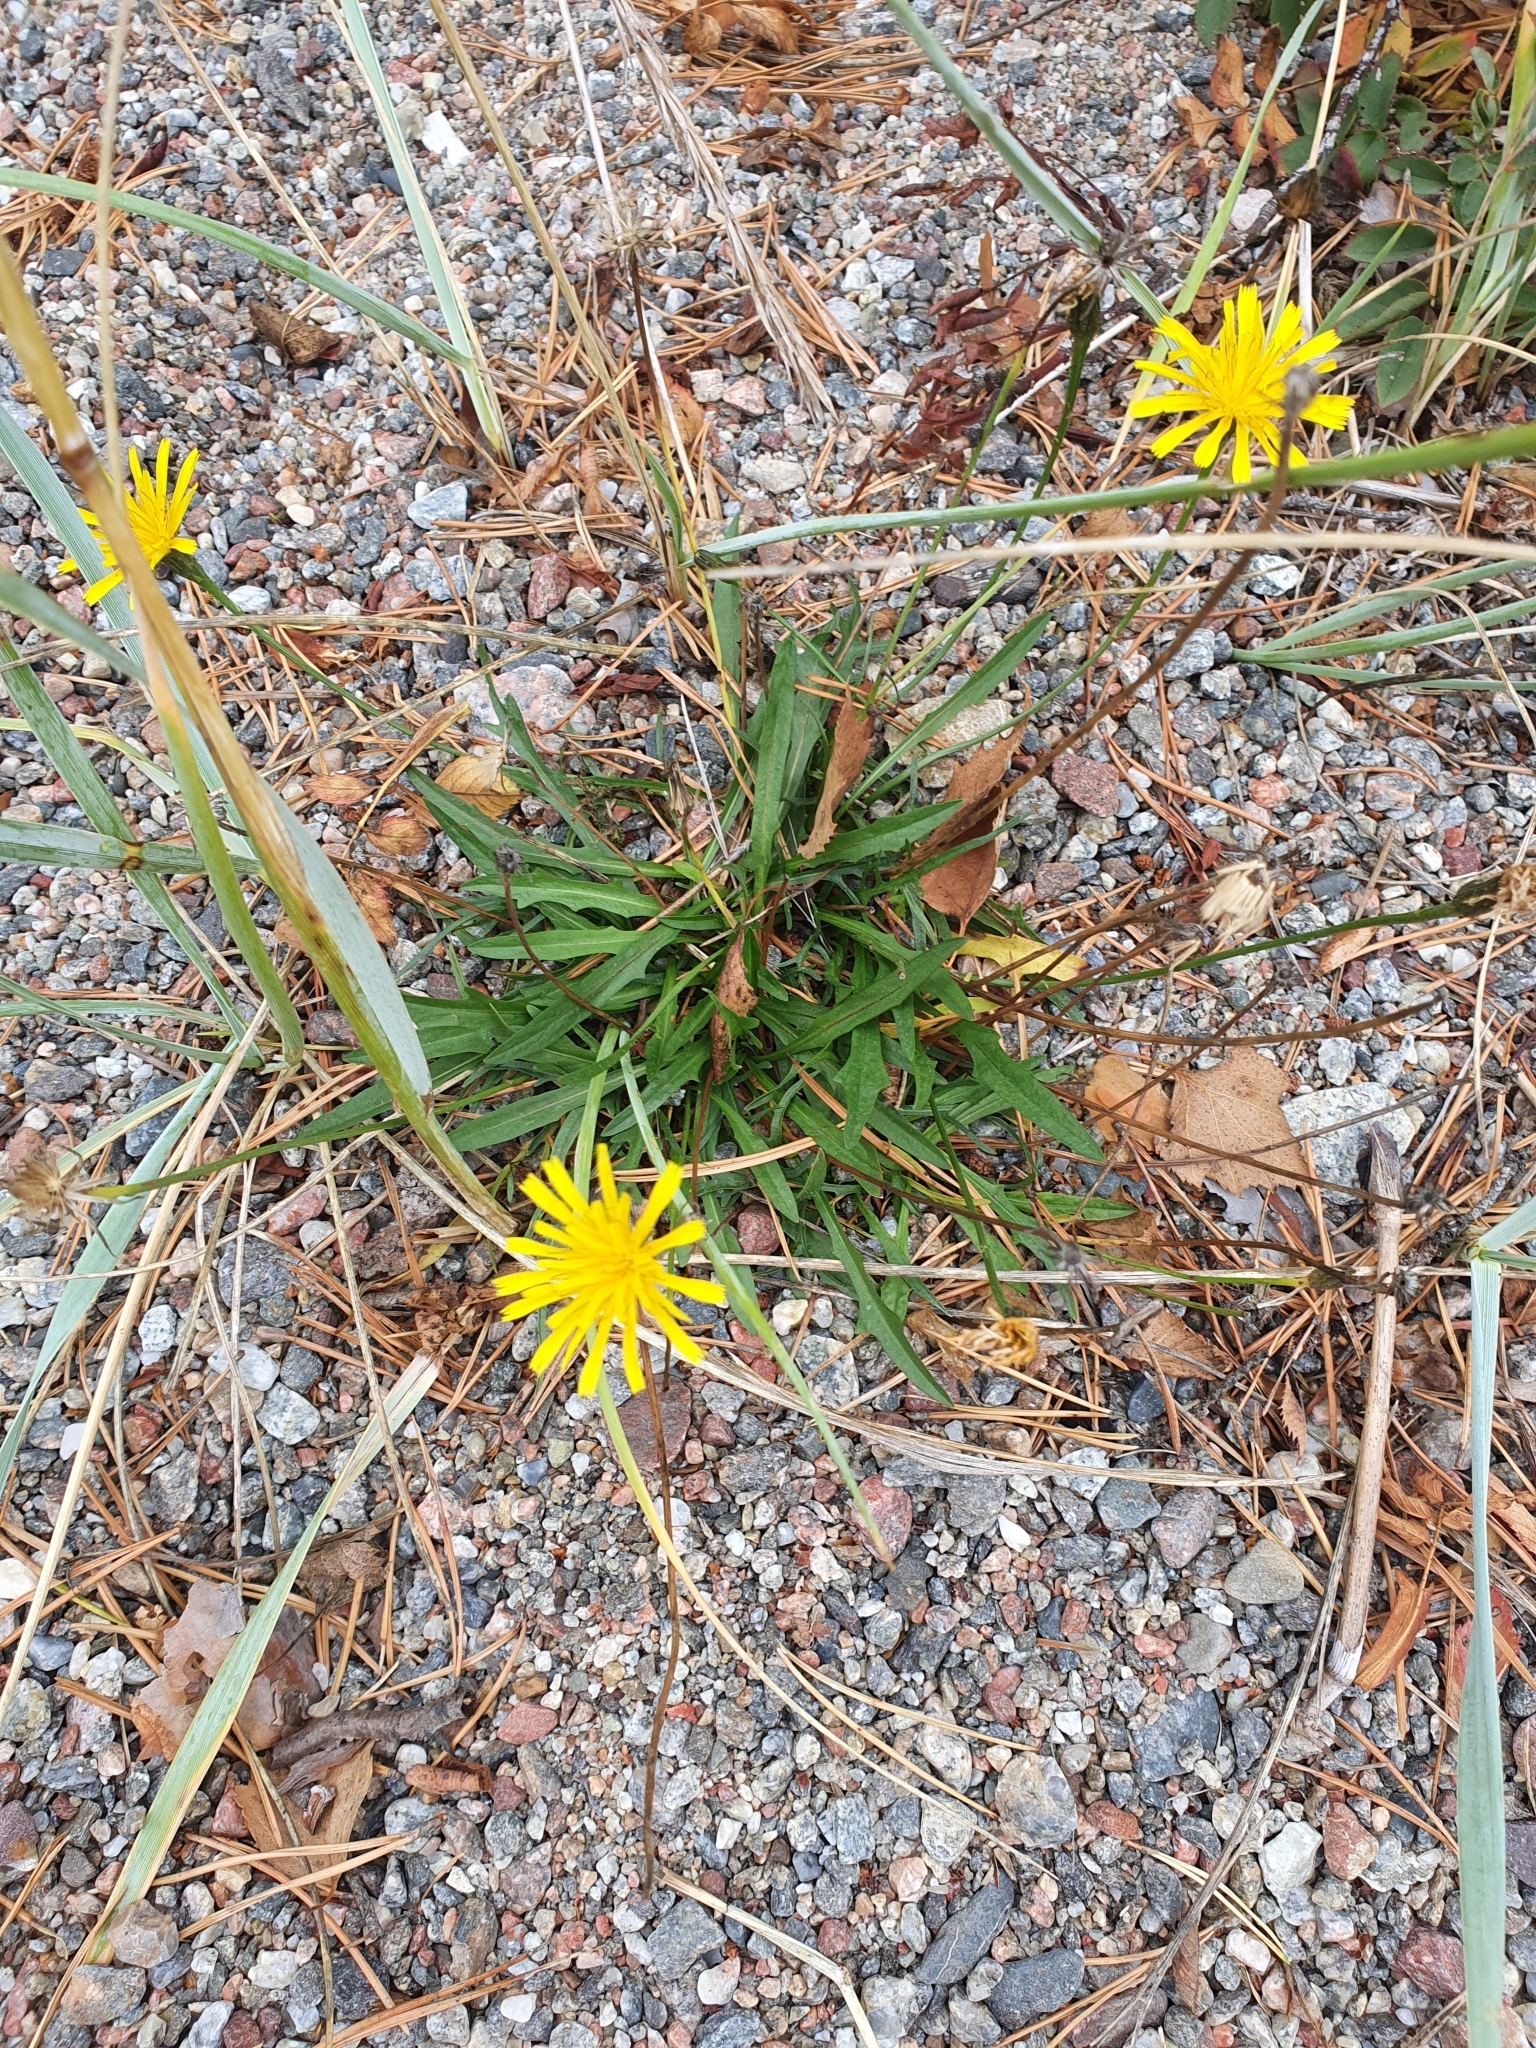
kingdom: Plantae
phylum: Tracheophyta
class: Magnoliopsida
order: Asterales
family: Asteraceae
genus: Scorzoneroides
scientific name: Scorzoneroides autumnalis
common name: Autumn hawkbit
